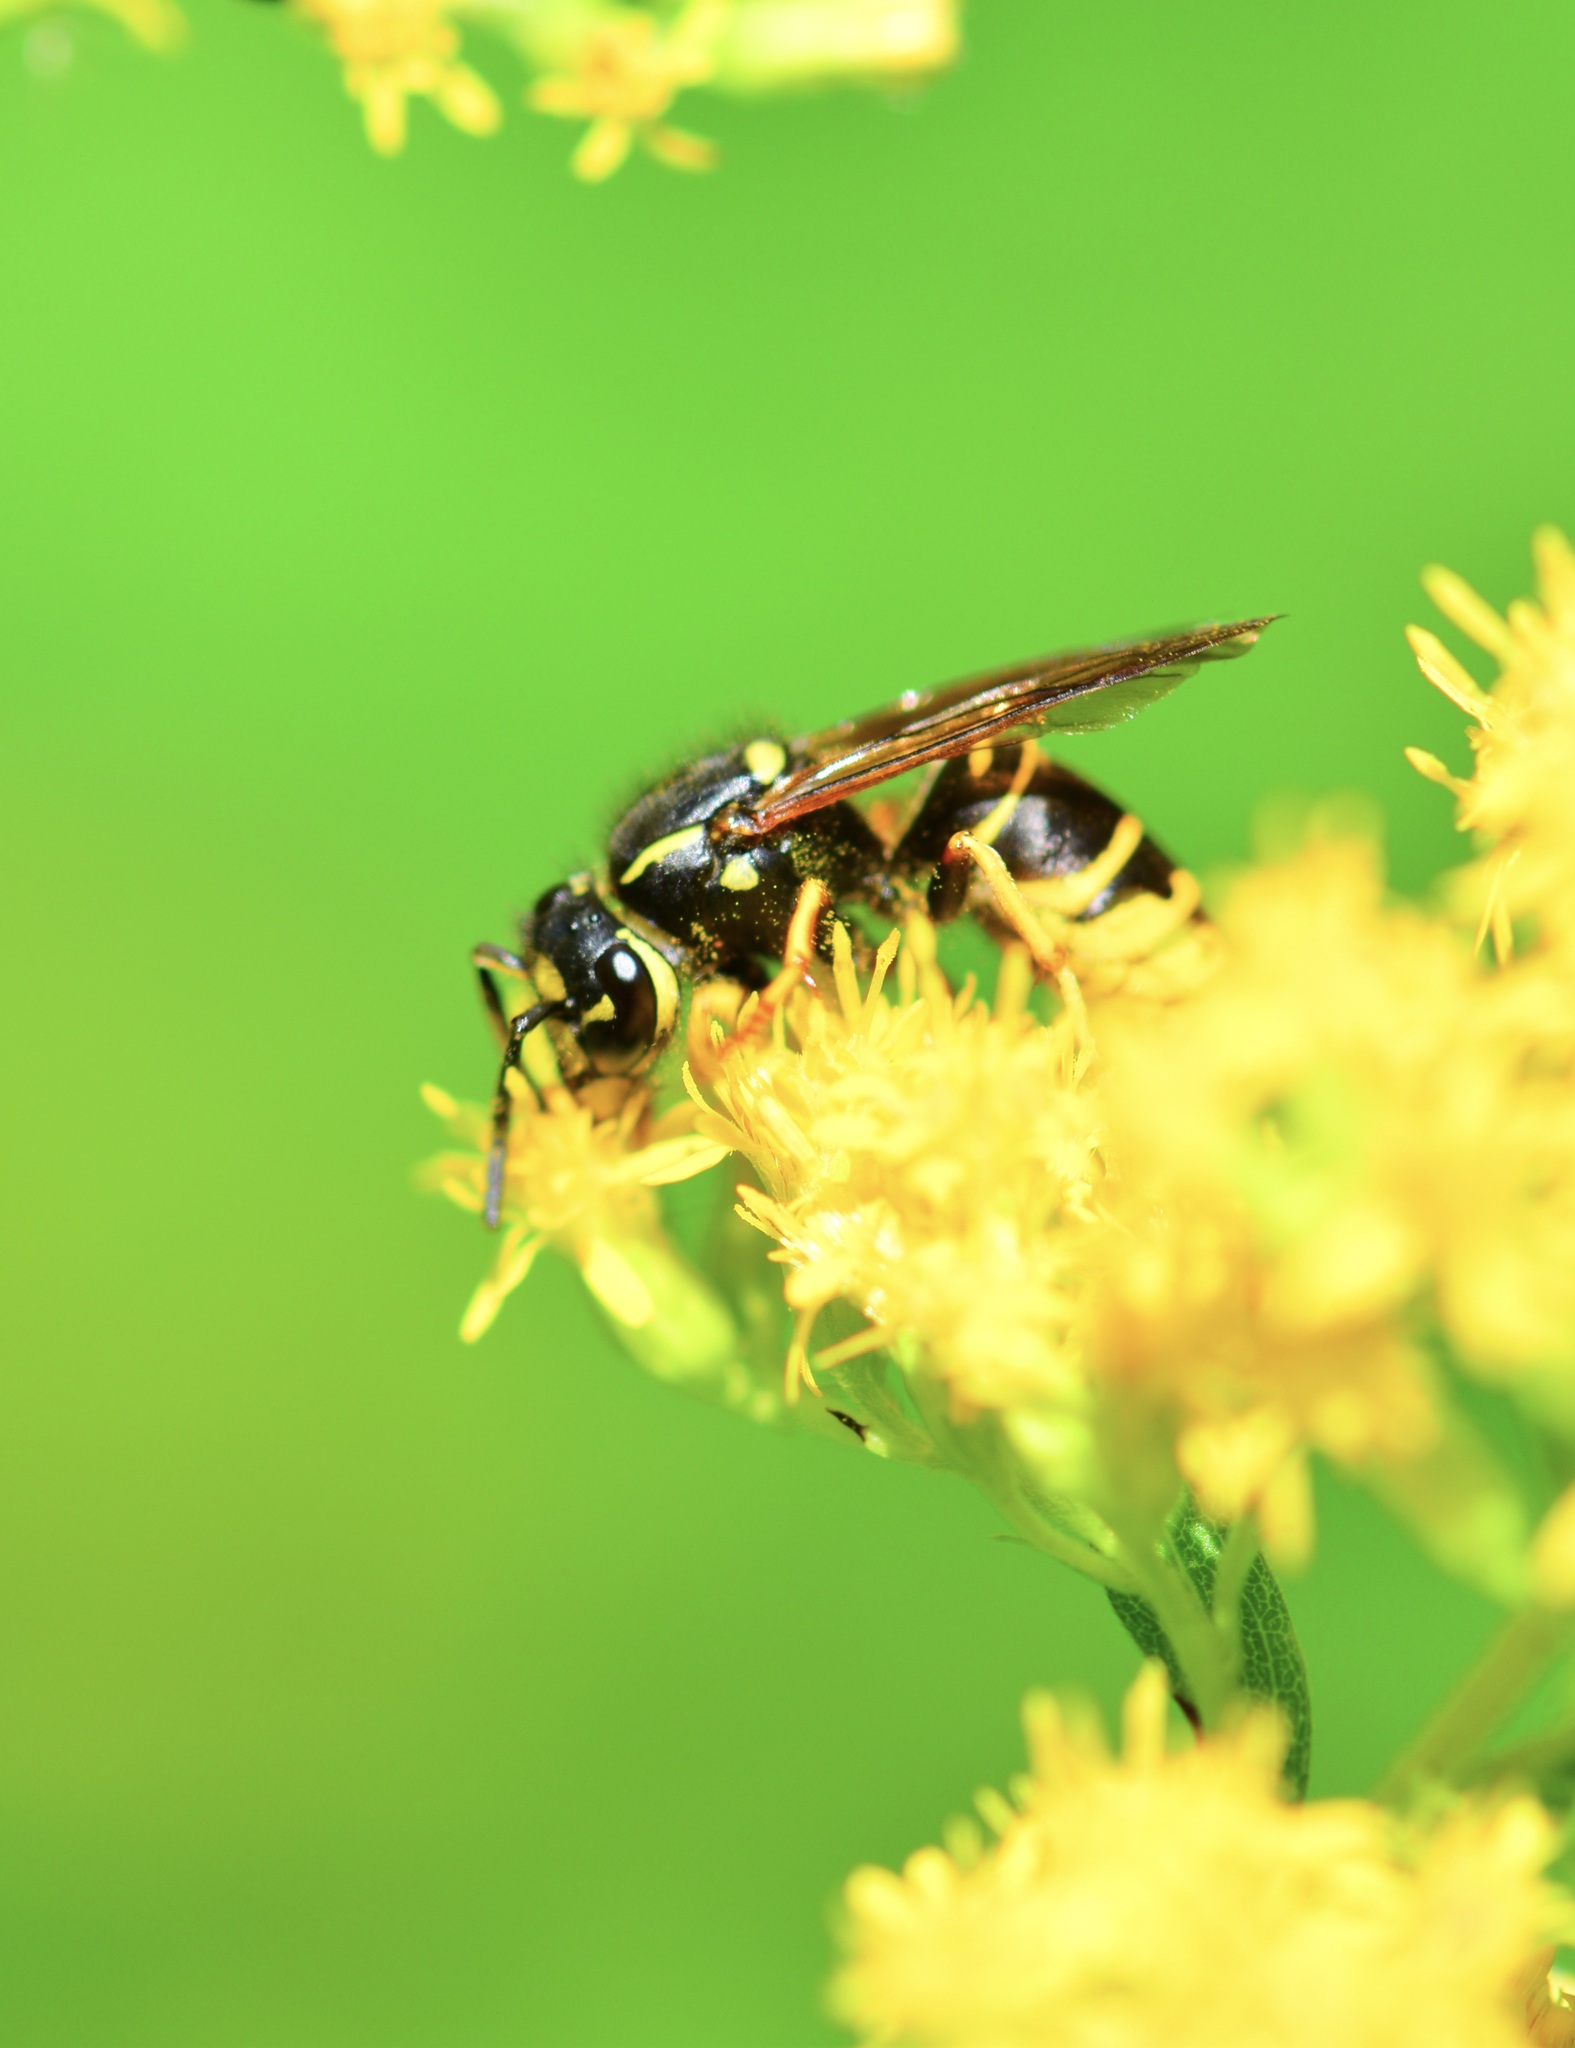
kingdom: Animalia
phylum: Arthropoda
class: Insecta
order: Hymenoptera
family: Vespidae
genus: Vespula
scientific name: Vespula vidua
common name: Widow yellowjacket
